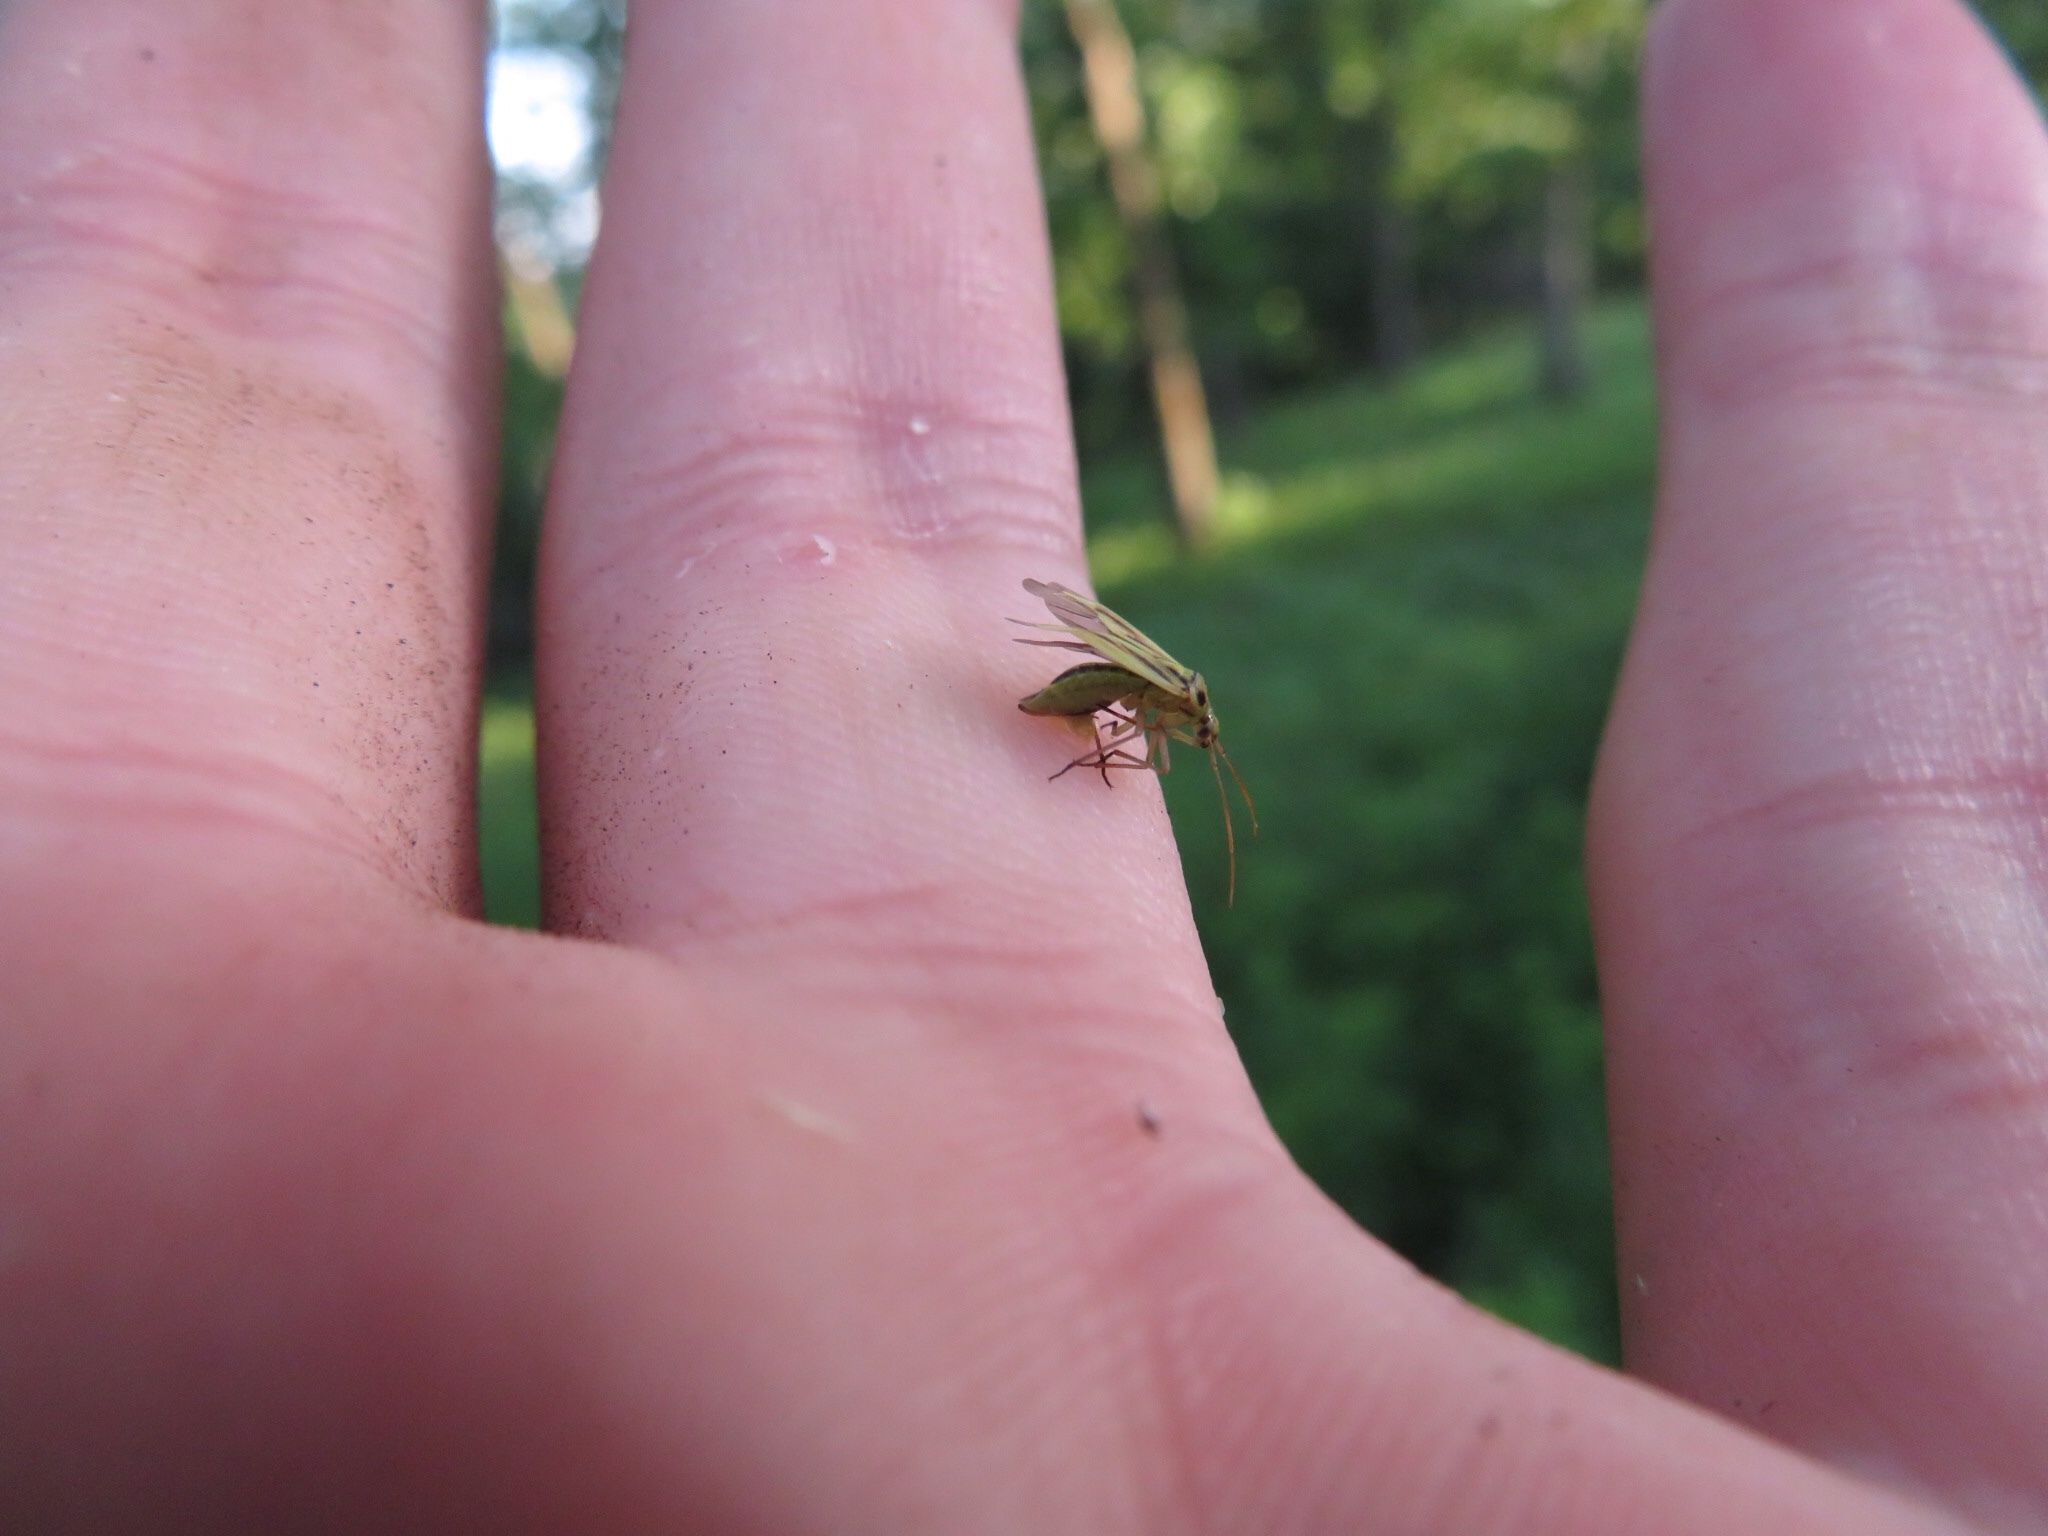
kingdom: Animalia
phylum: Arthropoda
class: Insecta
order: Hemiptera
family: Miridae
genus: Stenotus
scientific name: Stenotus binotatus
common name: Plant bug
